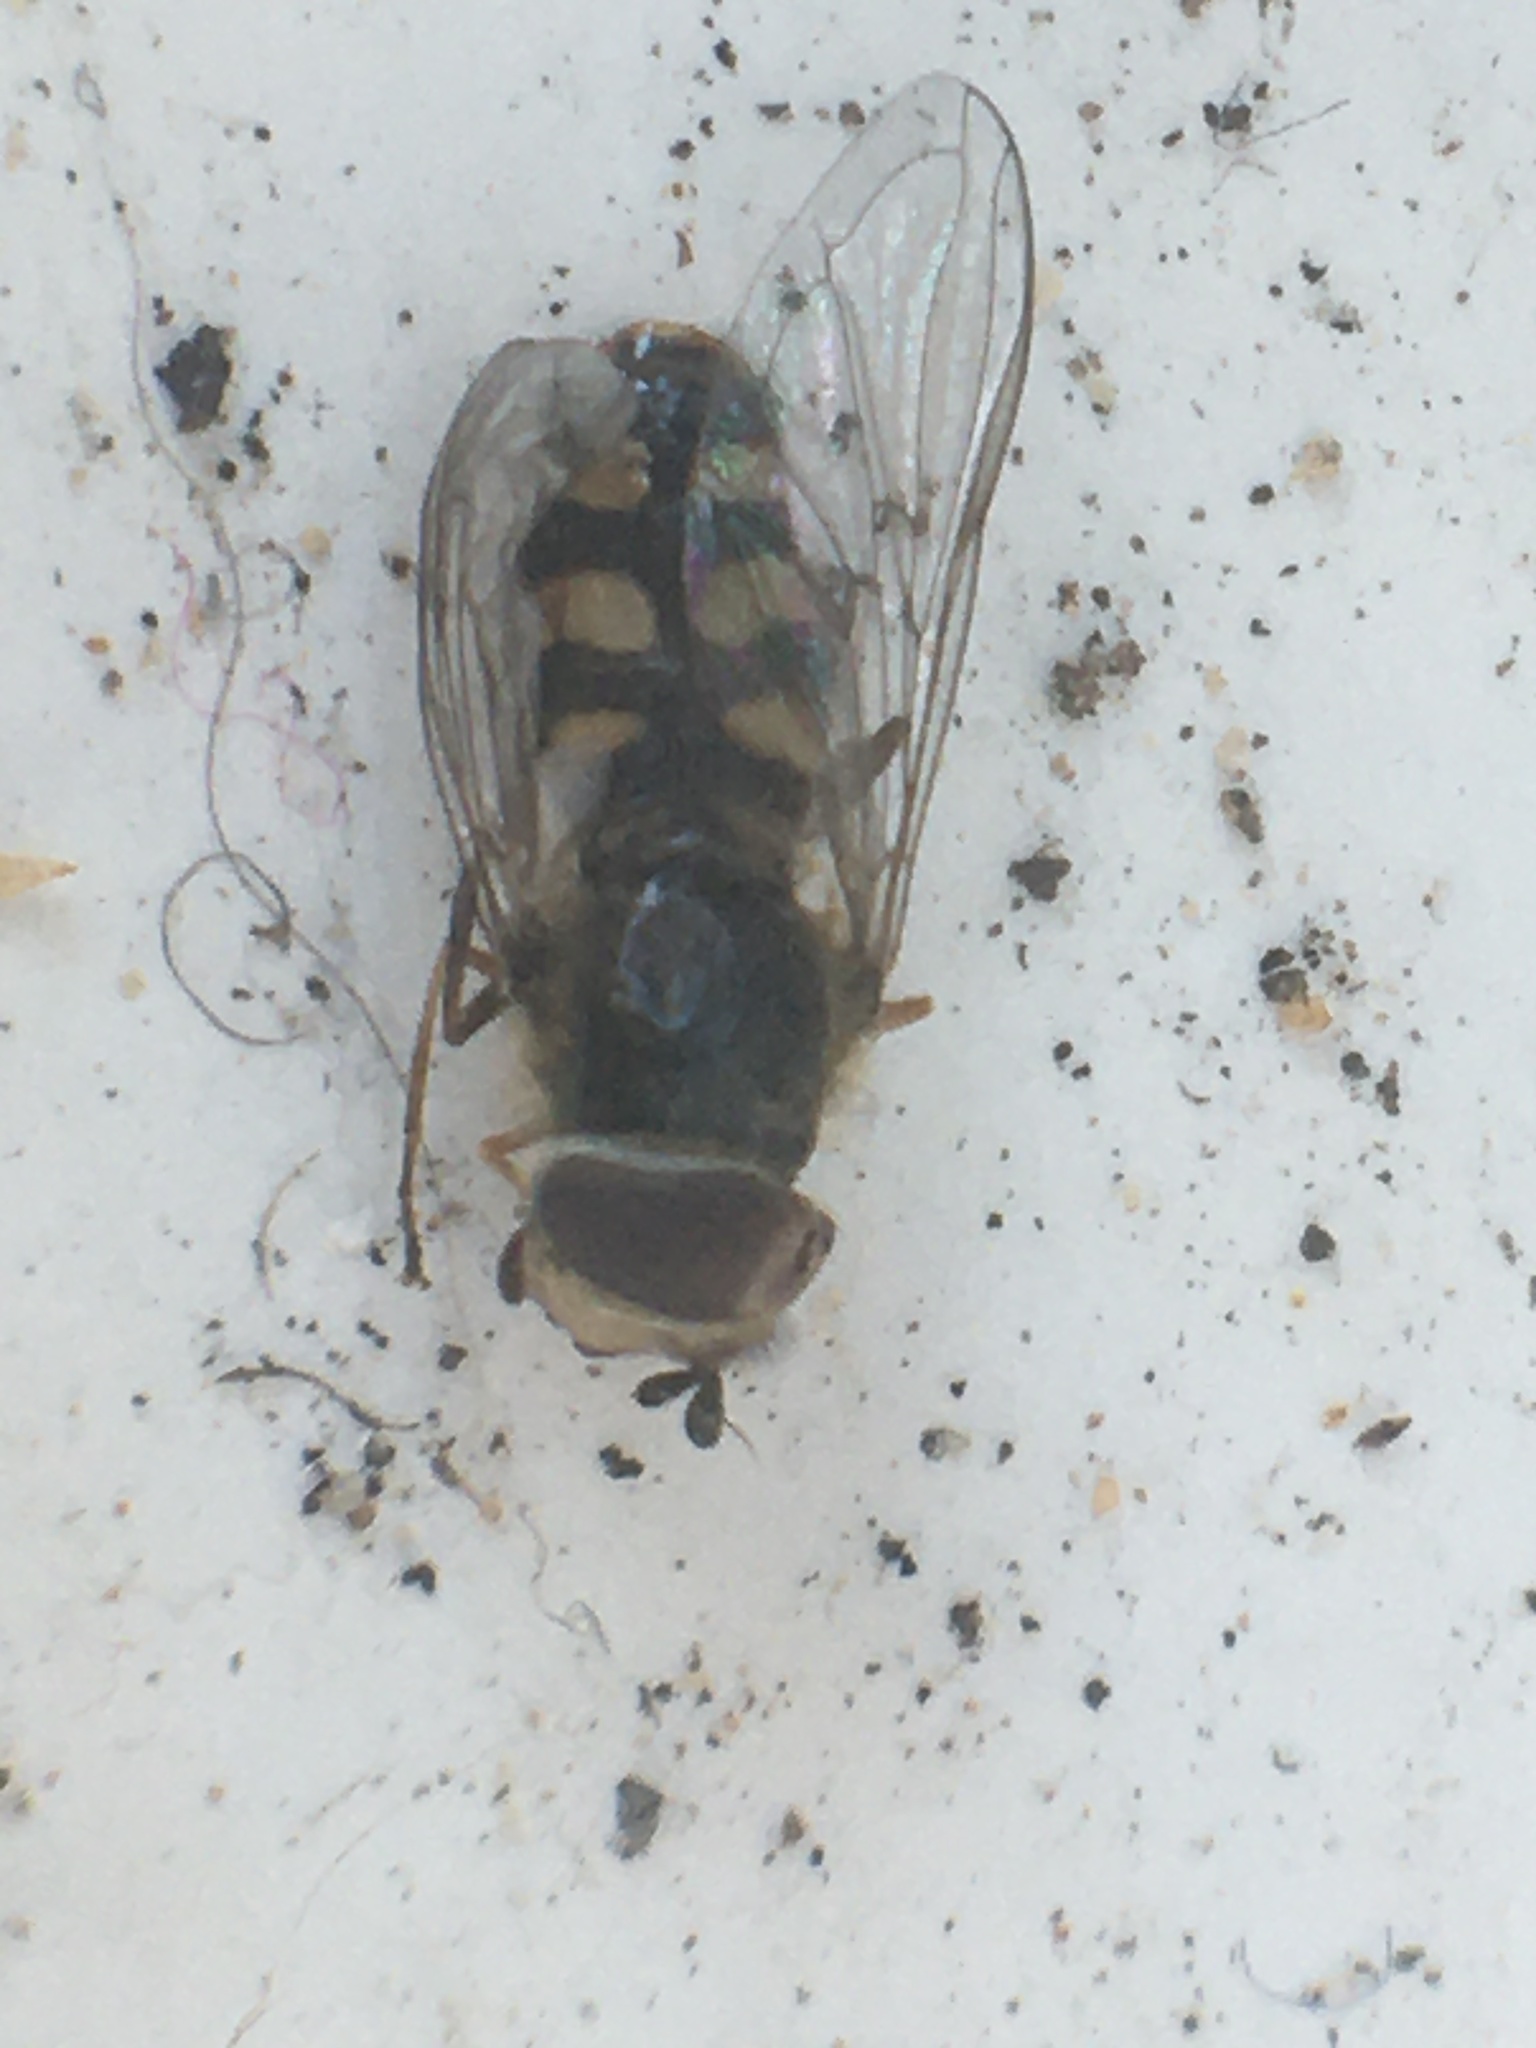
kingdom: Animalia
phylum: Arthropoda
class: Insecta
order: Diptera
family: Syrphidae
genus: Eupeodes
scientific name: Eupeodes
